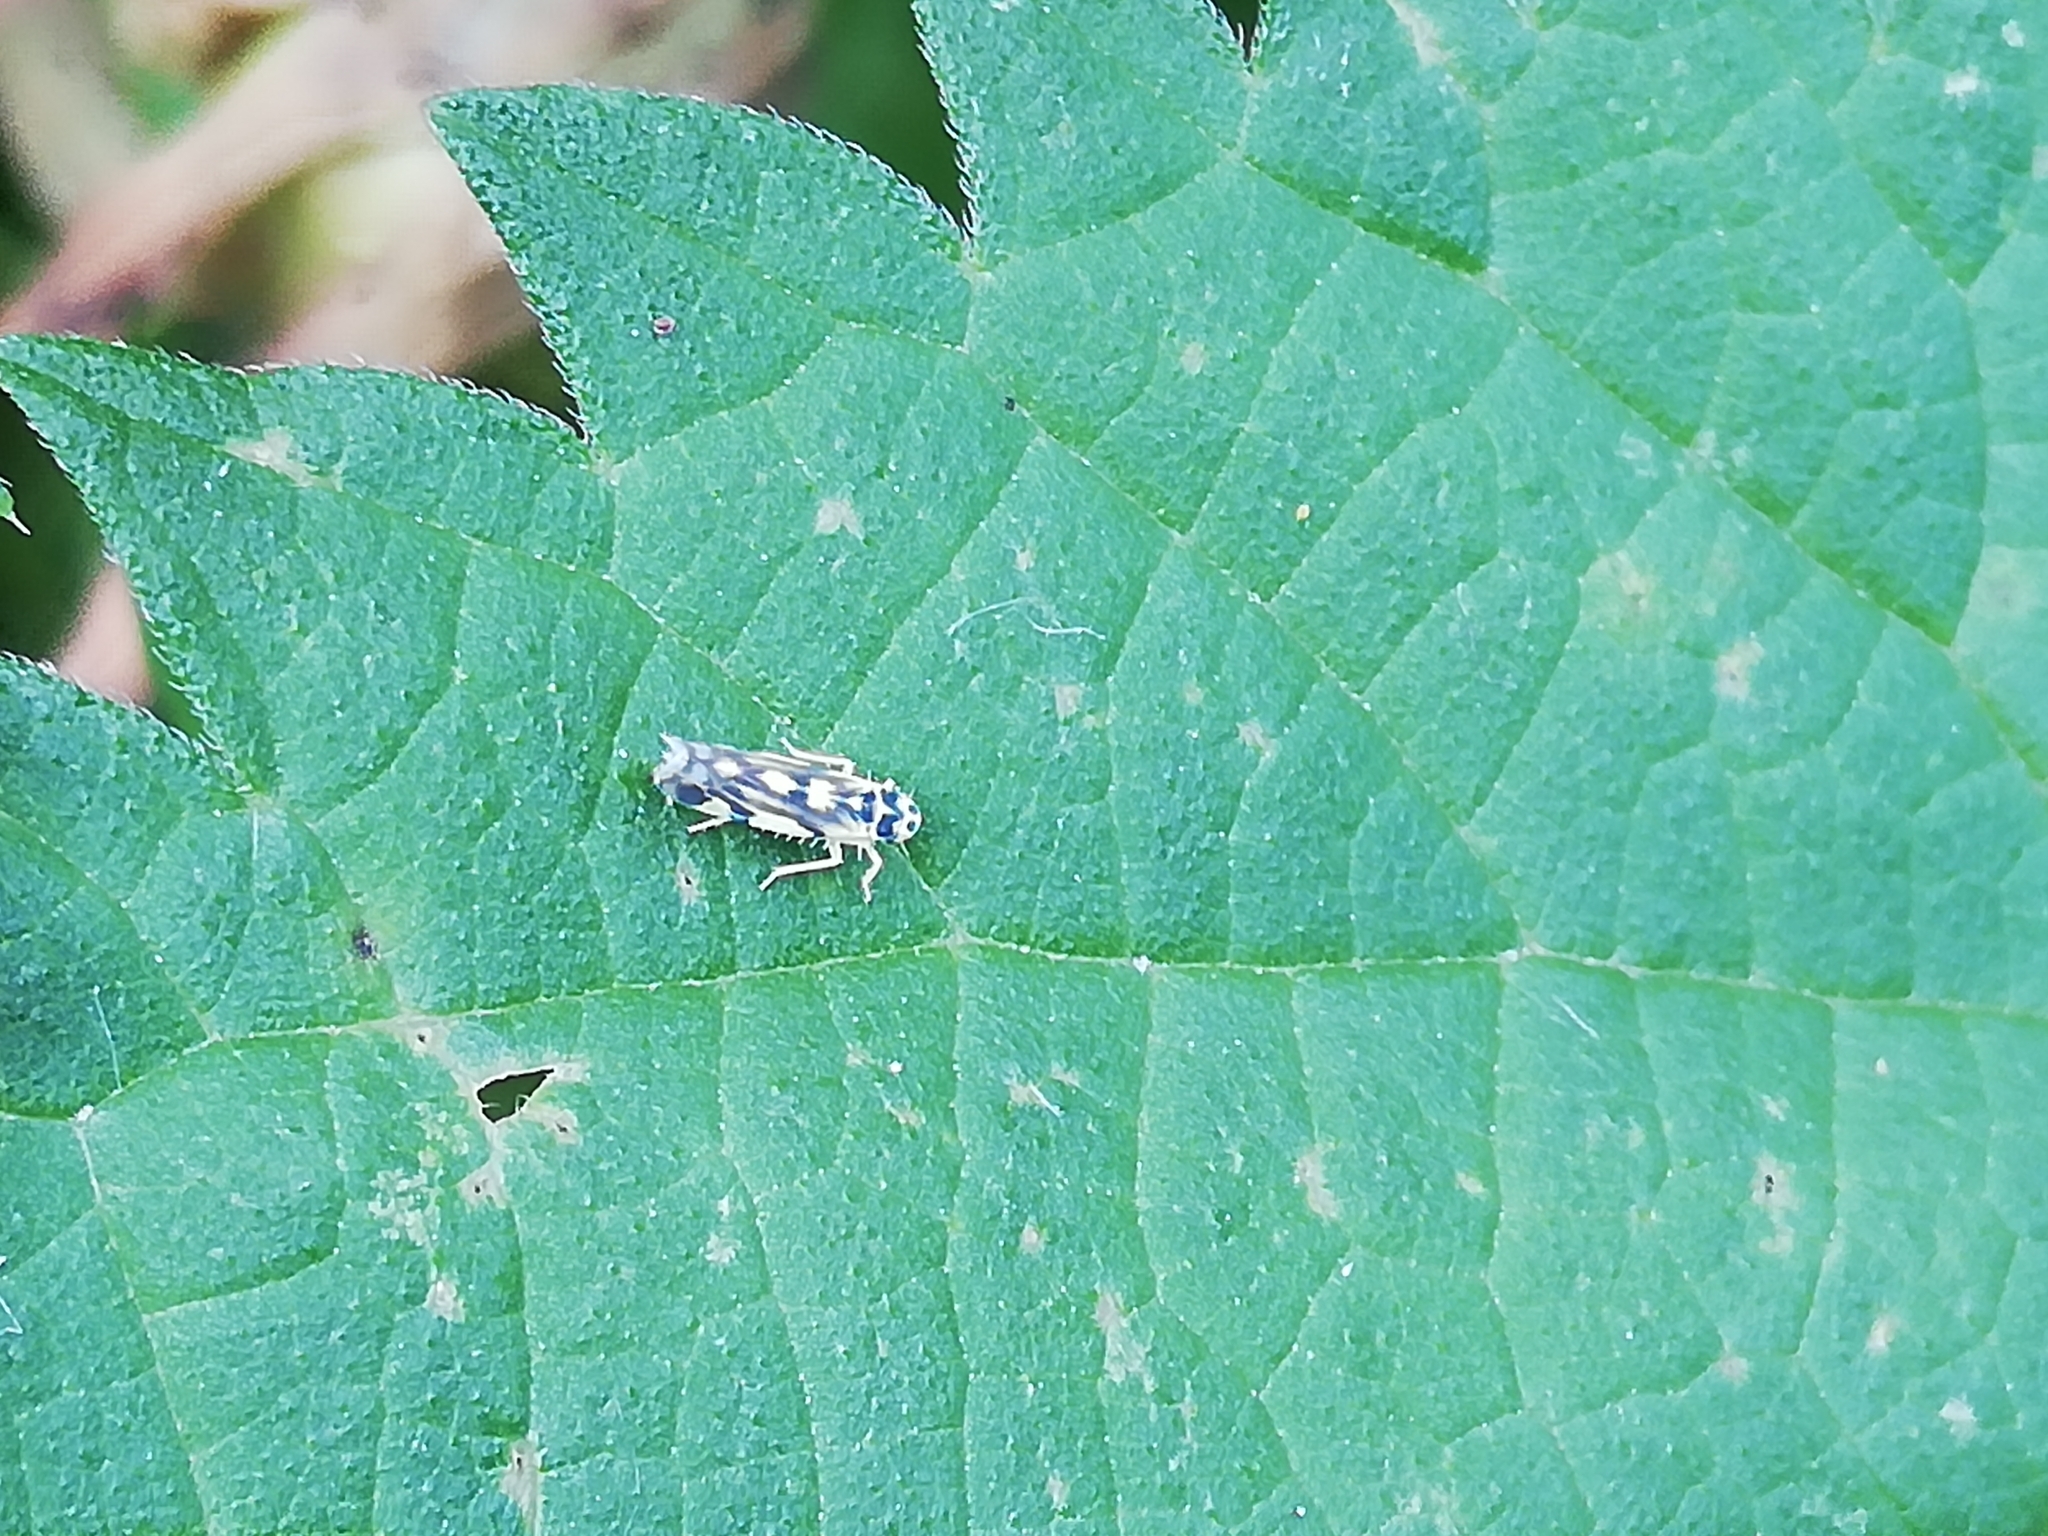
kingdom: Animalia
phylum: Arthropoda
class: Insecta
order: Hemiptera
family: Cicadellidae
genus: Eupteryx
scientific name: Eupteryx aurata
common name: Leafhopper
